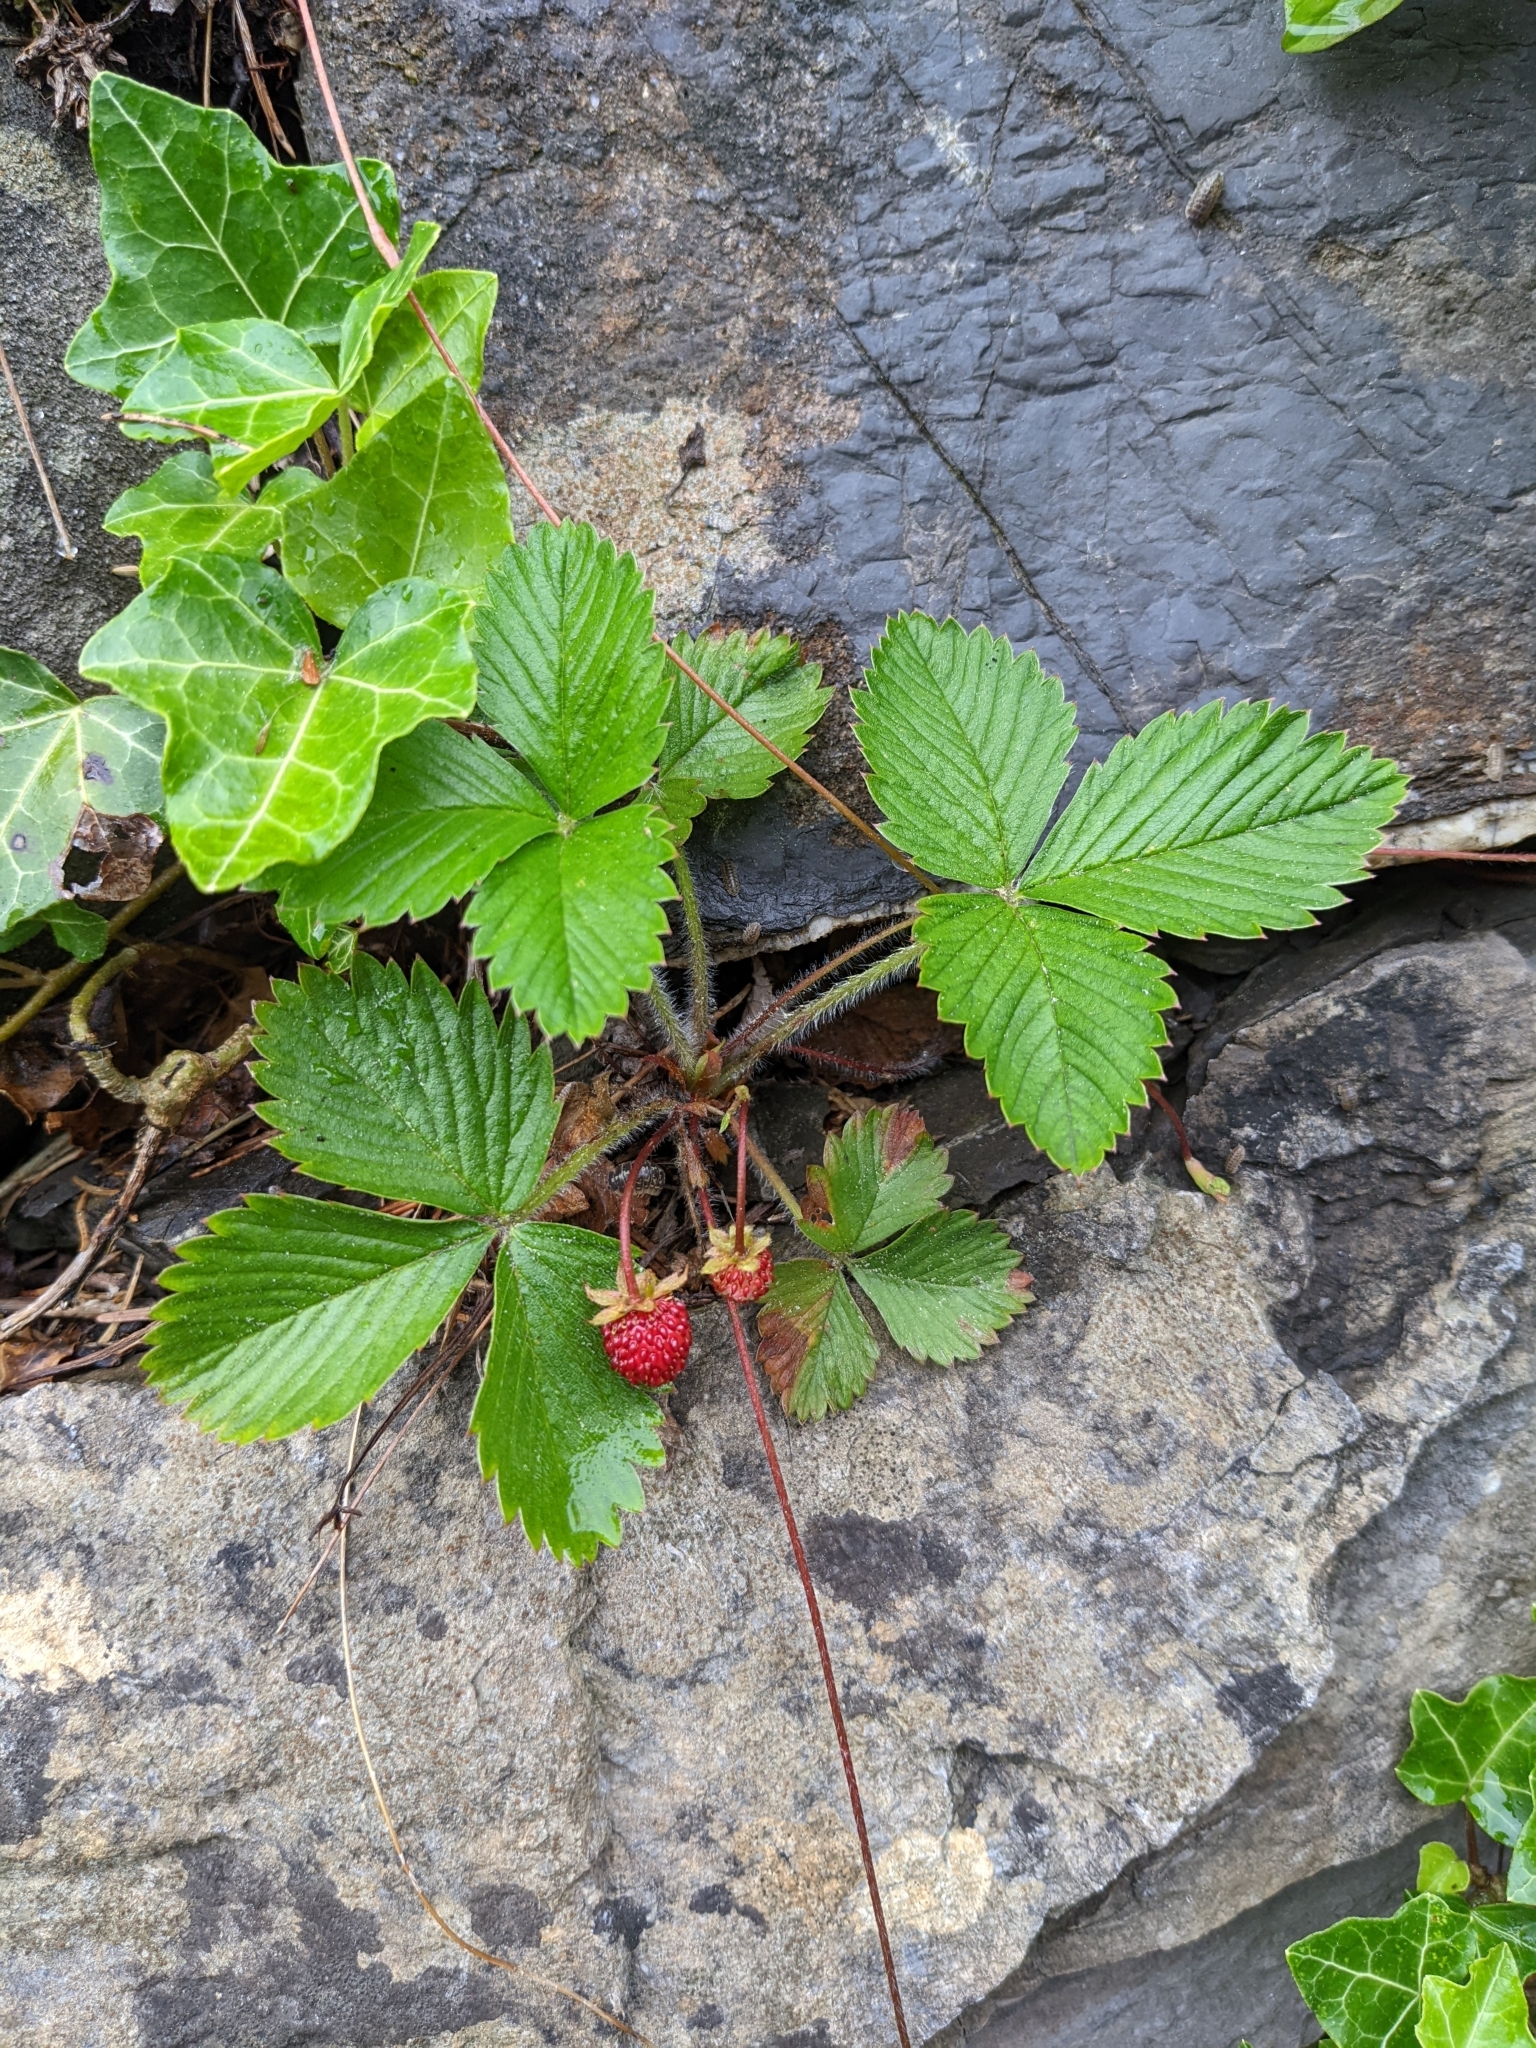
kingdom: Plantae
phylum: Tracheophyta
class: Magnoliopsida
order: Rosales
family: Rosaceae
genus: Fragaria
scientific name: Fragaria vesca
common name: Wild strawberry
